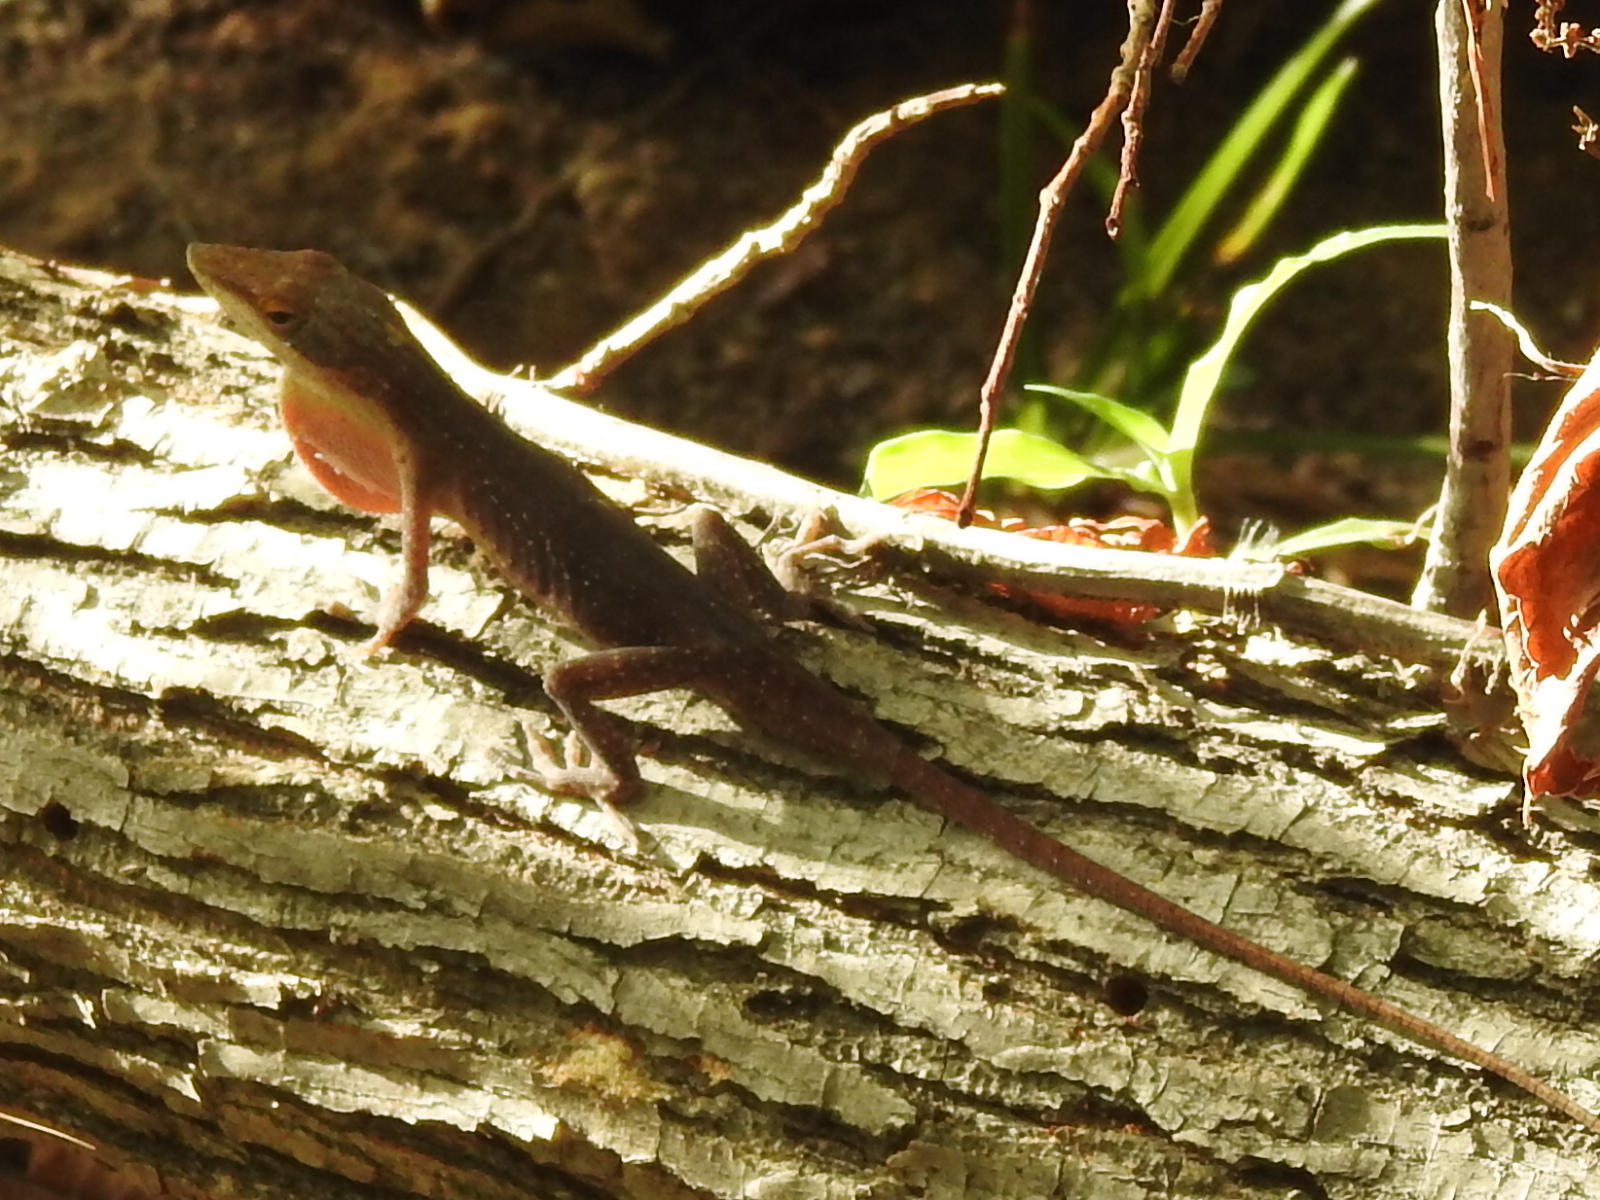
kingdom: Animalia
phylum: Chordata
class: Squamata
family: Dactyloidae
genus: Anolis
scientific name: Anolis carolinensis
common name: Green anole
